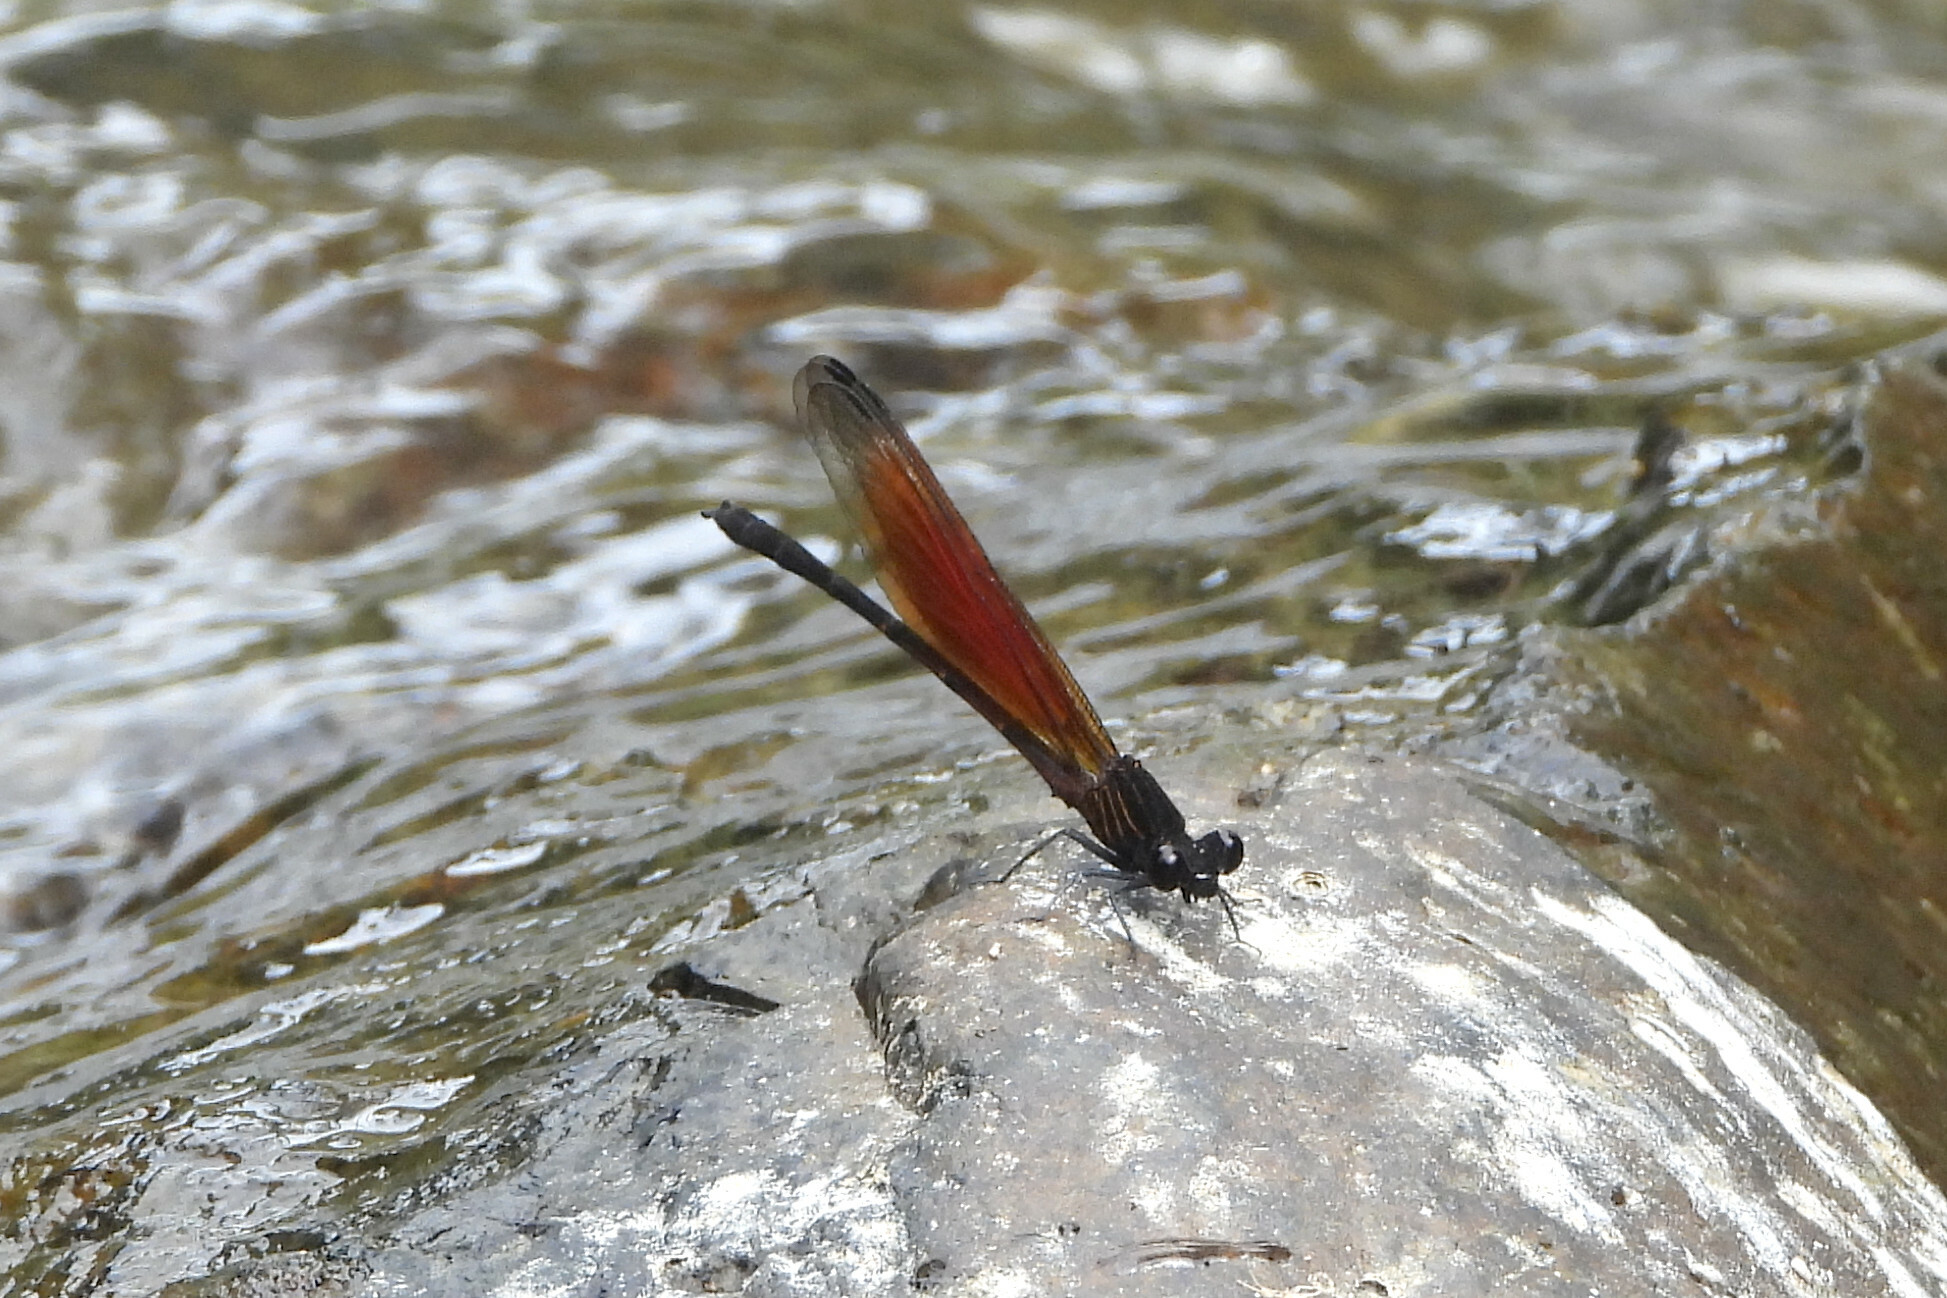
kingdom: Animalia
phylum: Arthropoda
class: Insecta
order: Odonata
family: Euphaeidae
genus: Euphaea
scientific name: Euphaea ochracea
